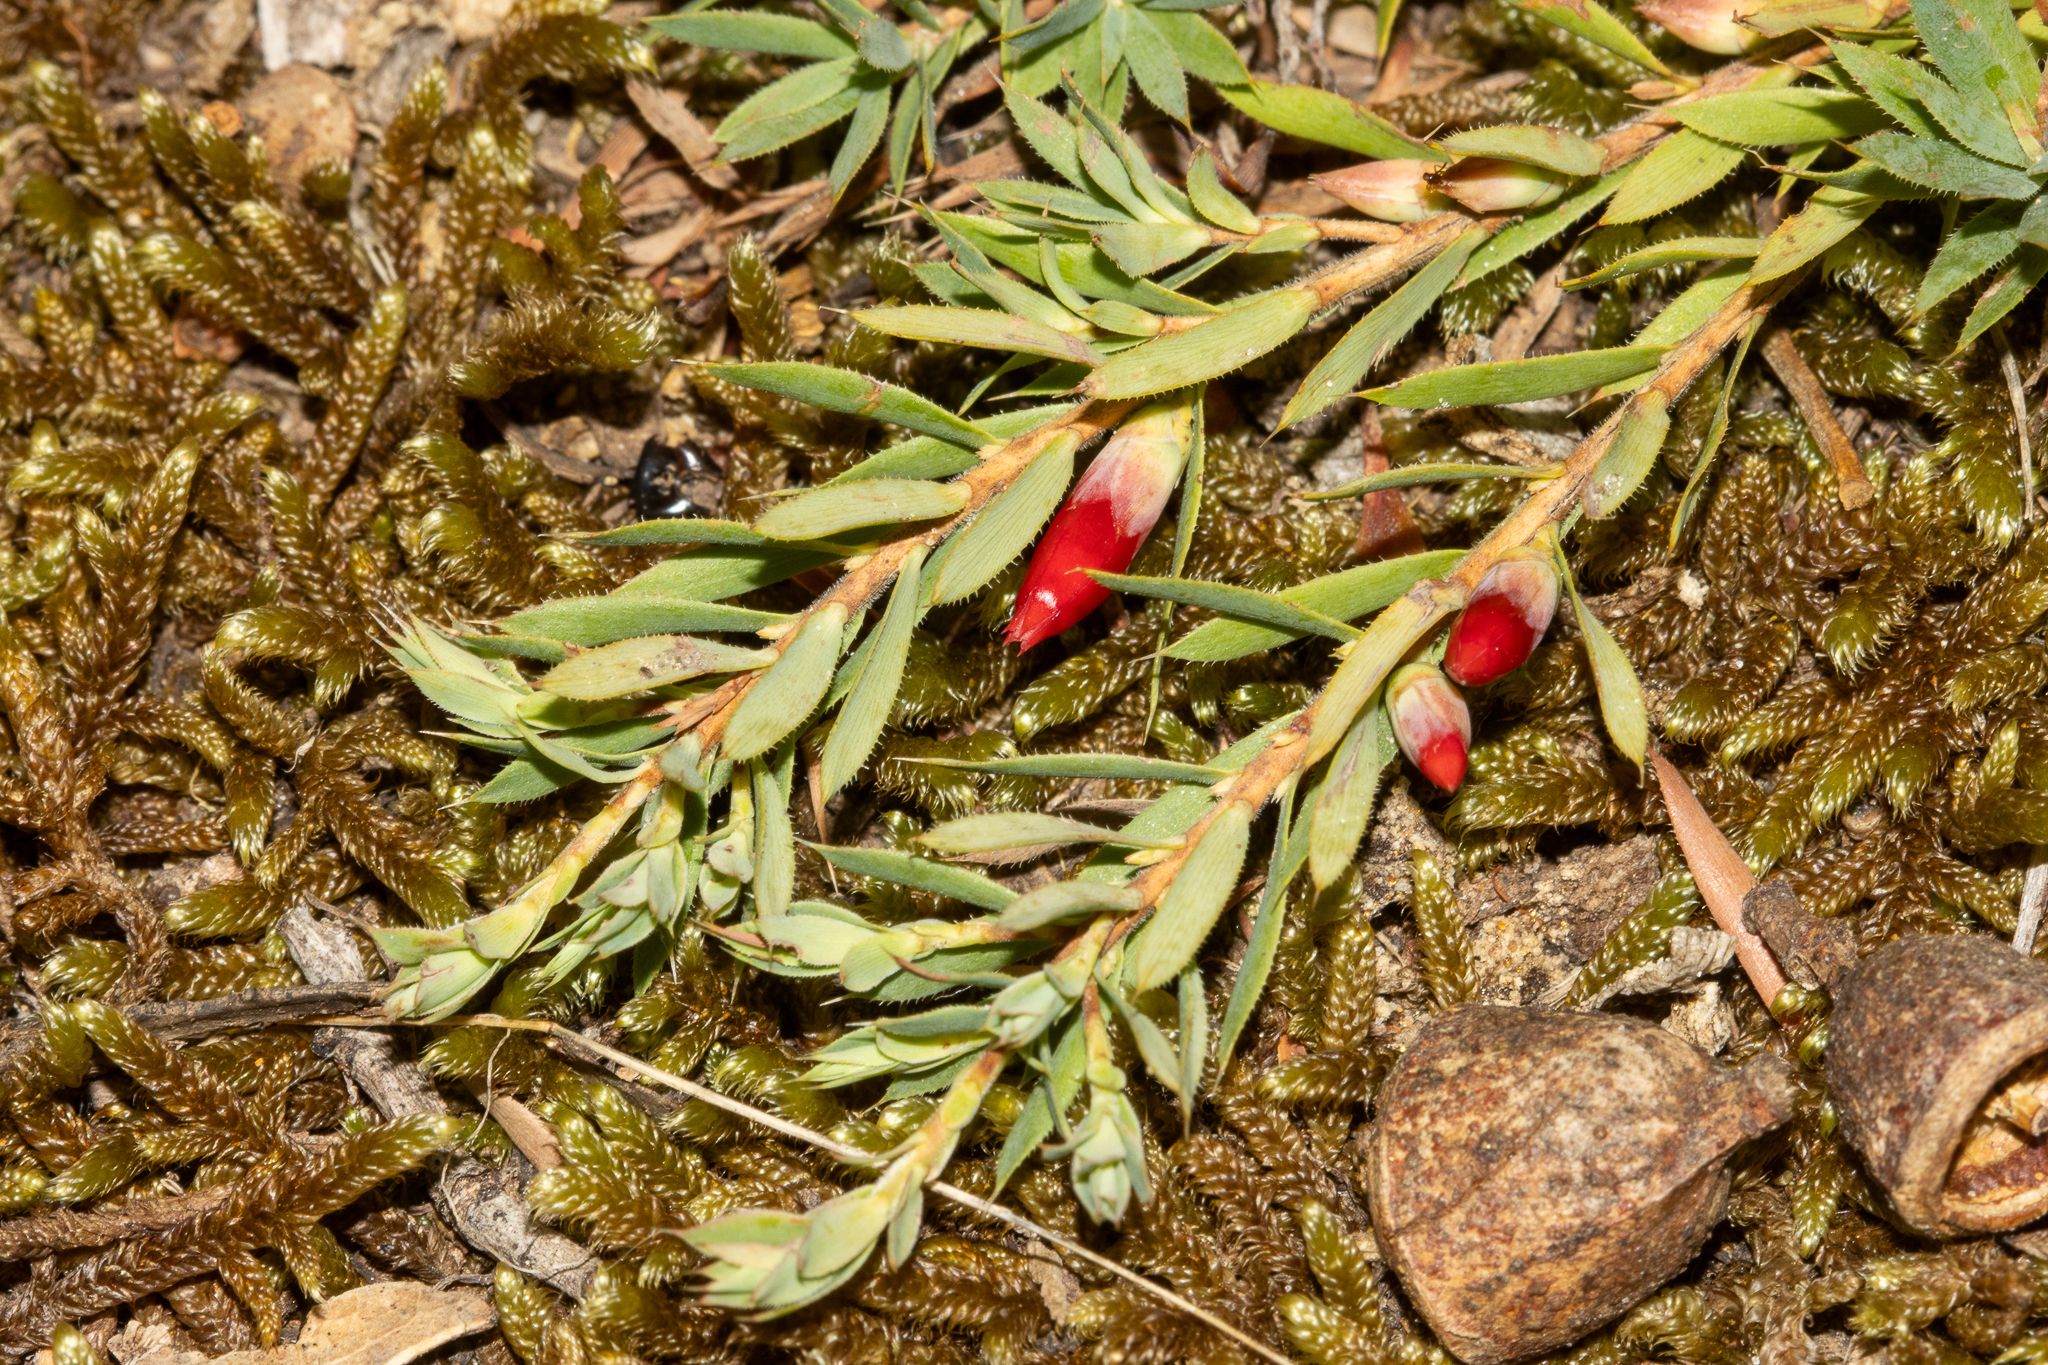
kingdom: Plantae
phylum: Tracheophyta
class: Magnoliopsida
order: Ericales
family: Ericaceae
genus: Styphelia
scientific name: Styphelia humifusa
